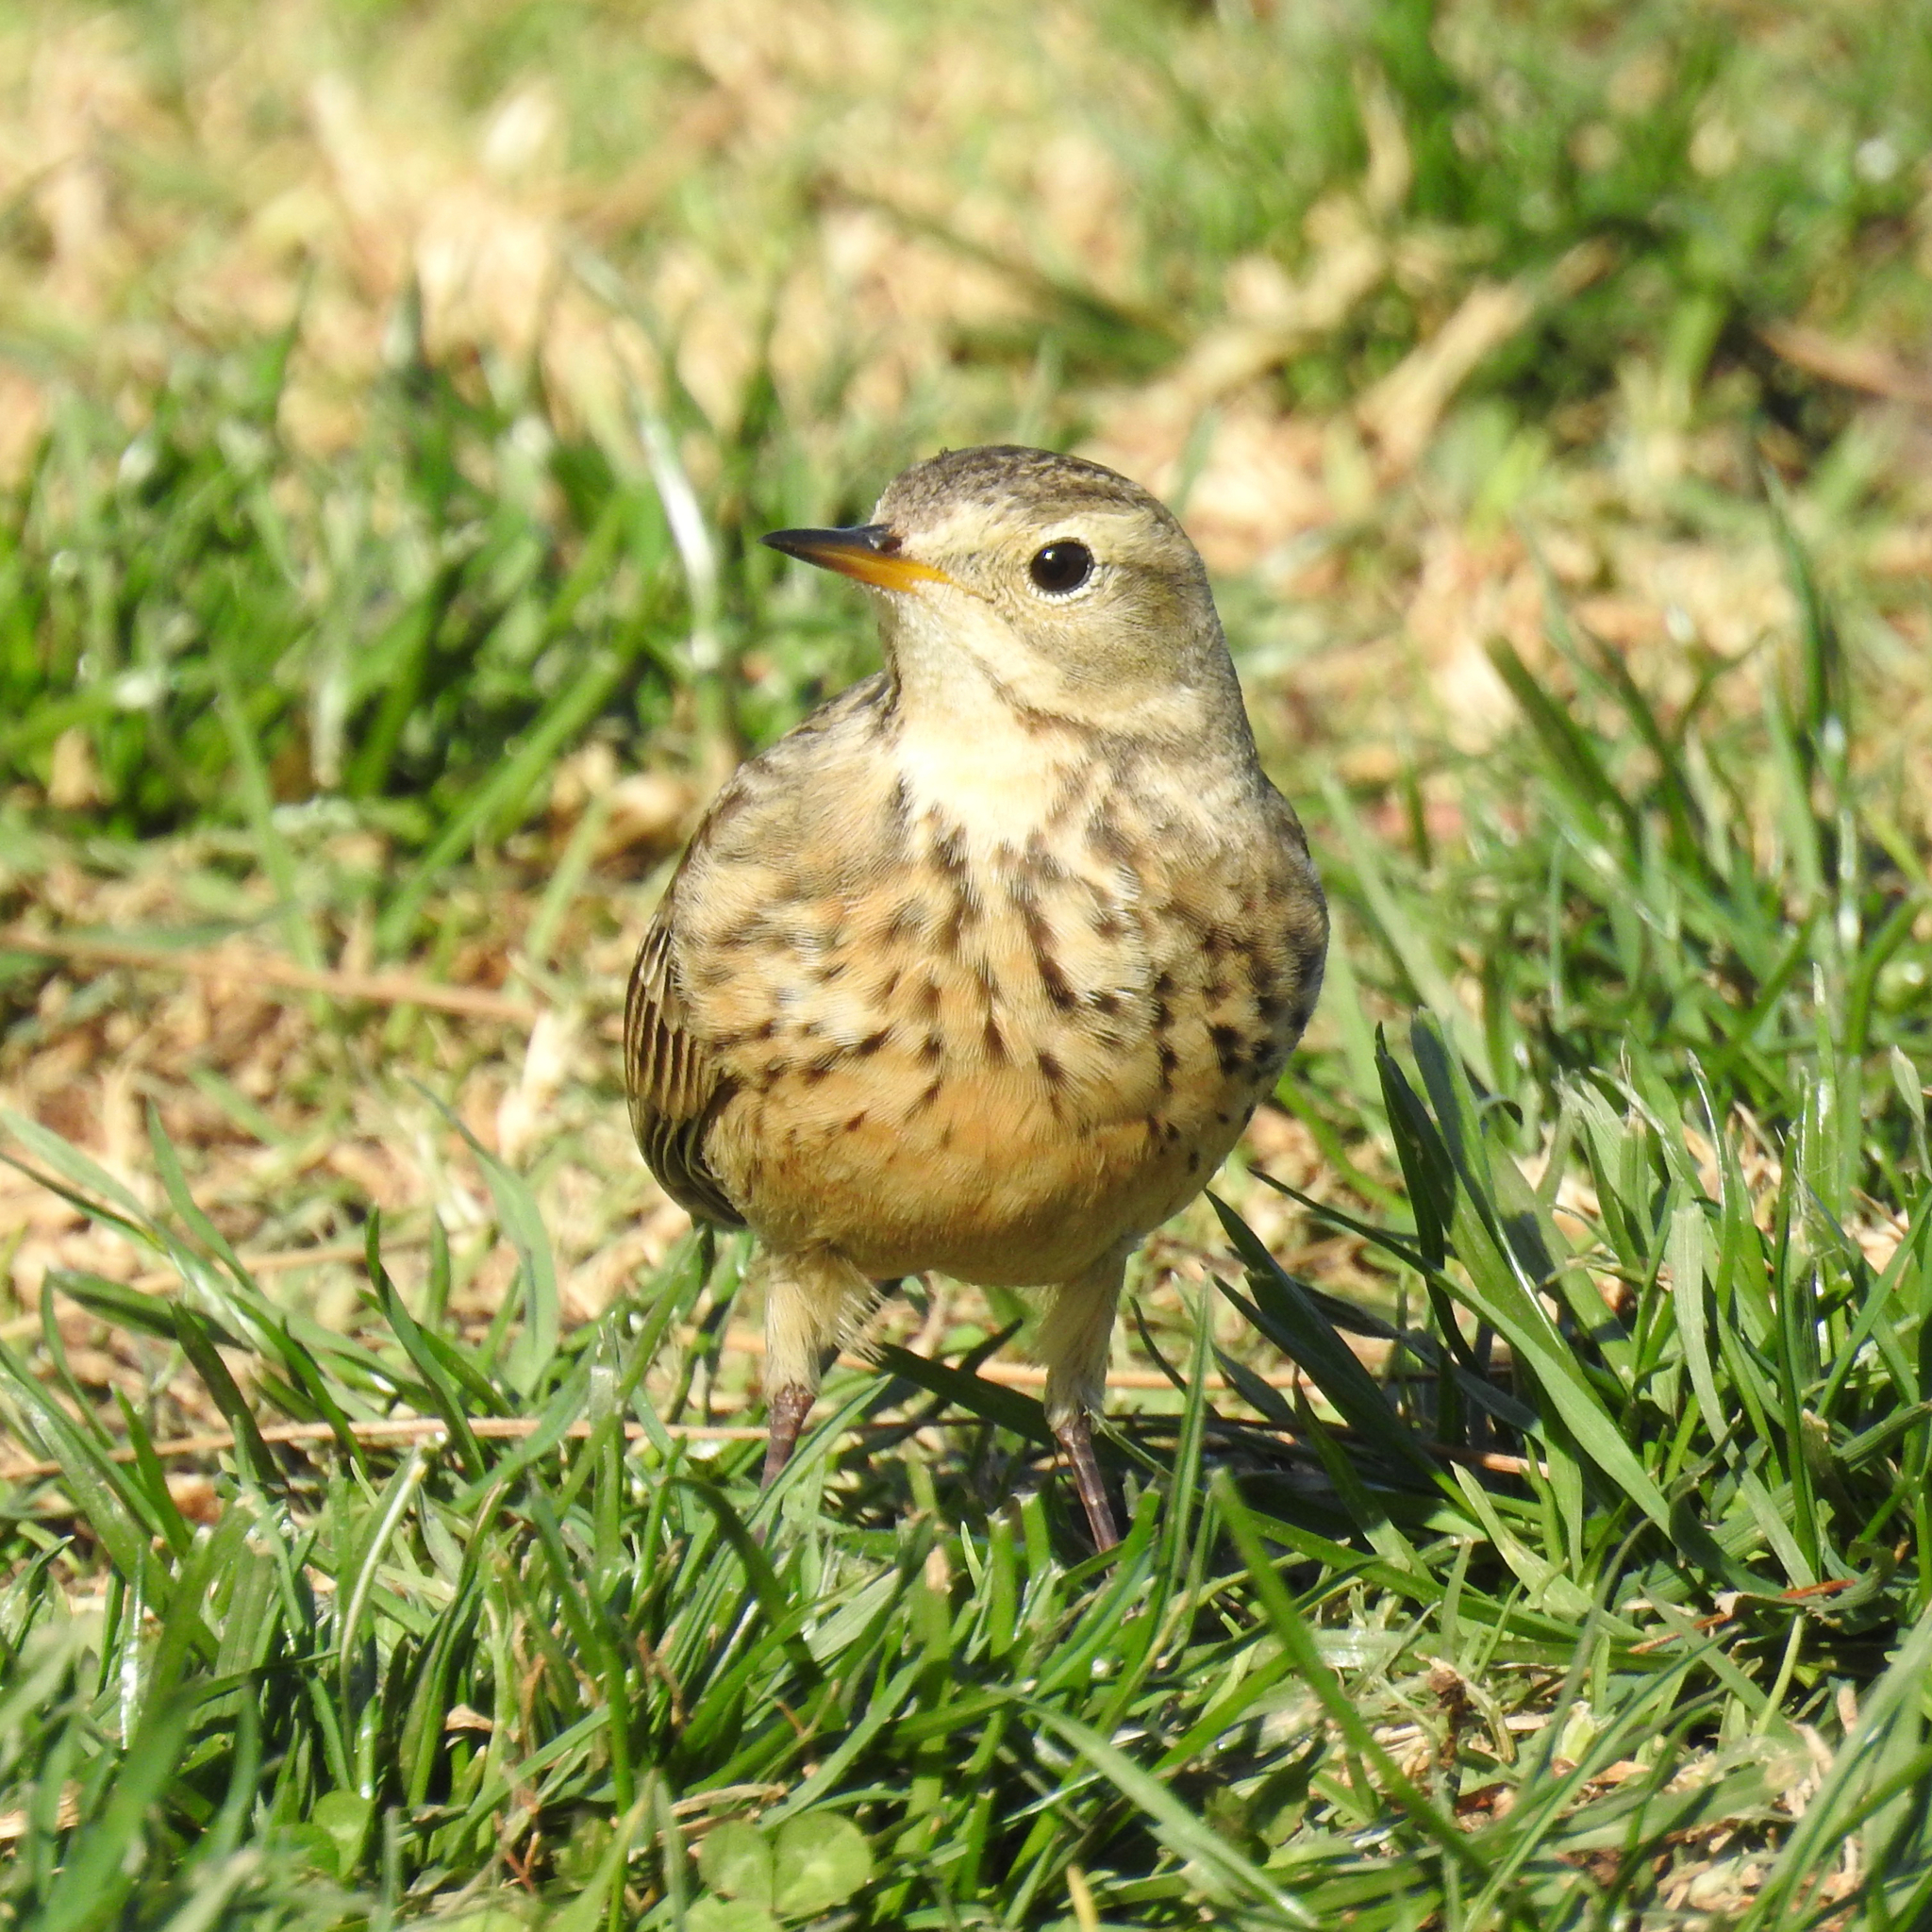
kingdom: Animalia
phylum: Chordata
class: Aves
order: Passeriformes
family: Motacillidae
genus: Anthus
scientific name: Anthus rubescens
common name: Buff-bellied pipit
